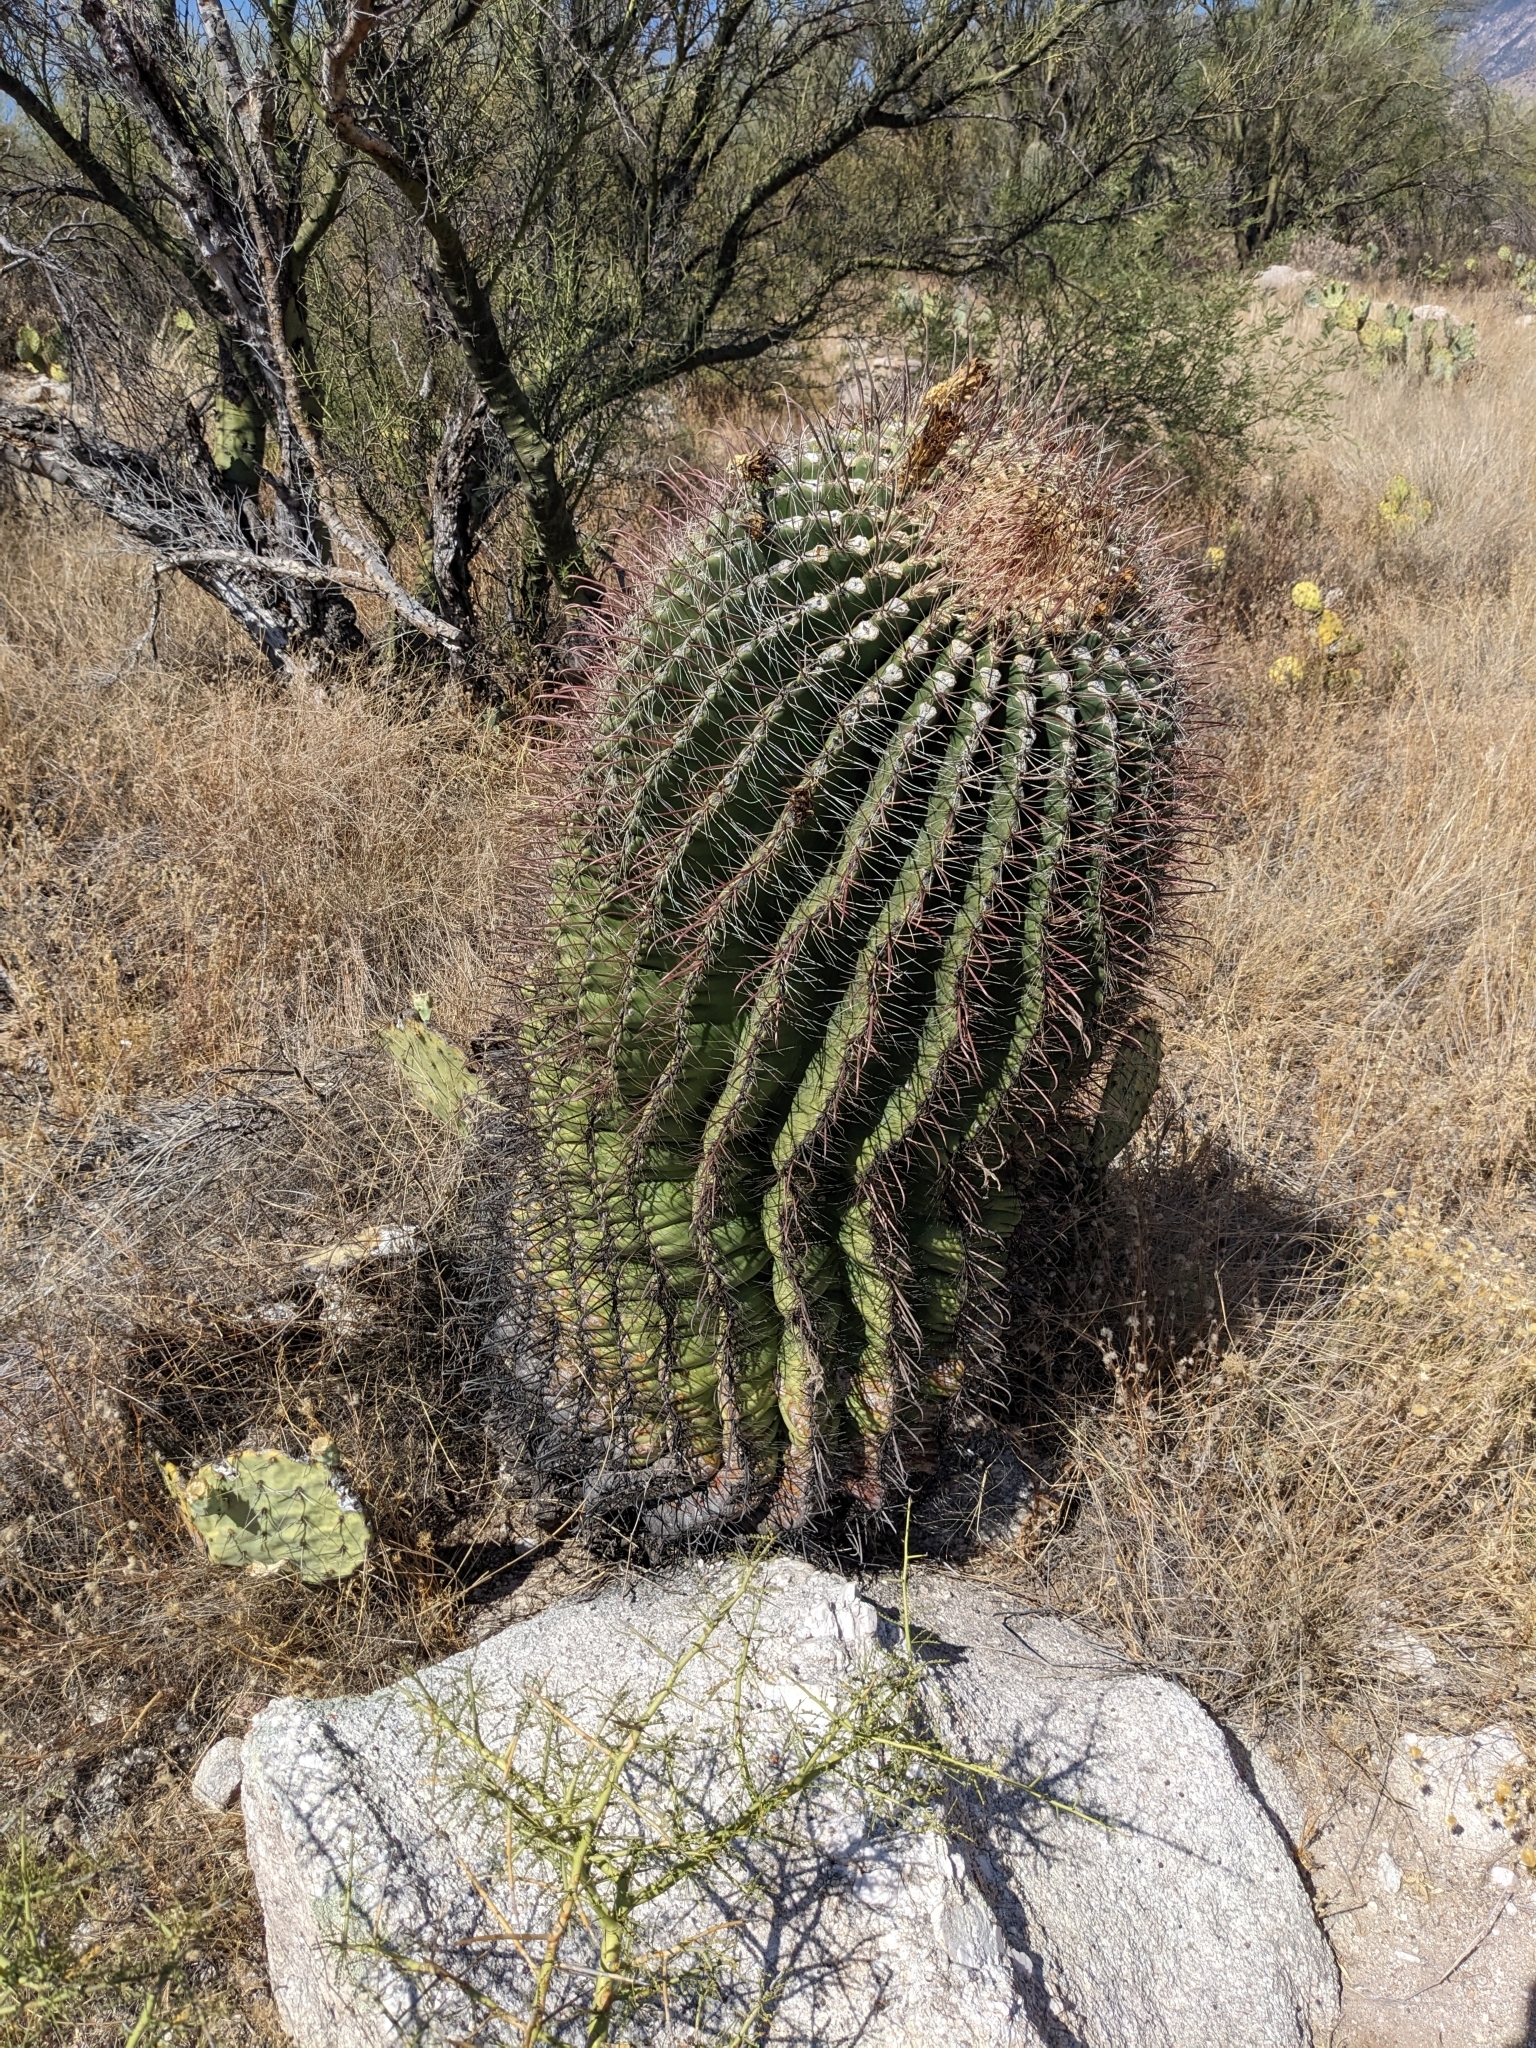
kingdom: Plantae
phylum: Tracheophyta
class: Magnoliopsida
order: Caryophyllales
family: Cactaceae
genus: Ferocactus
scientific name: Ferocactus wislizeni
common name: Candy barrel cactus
